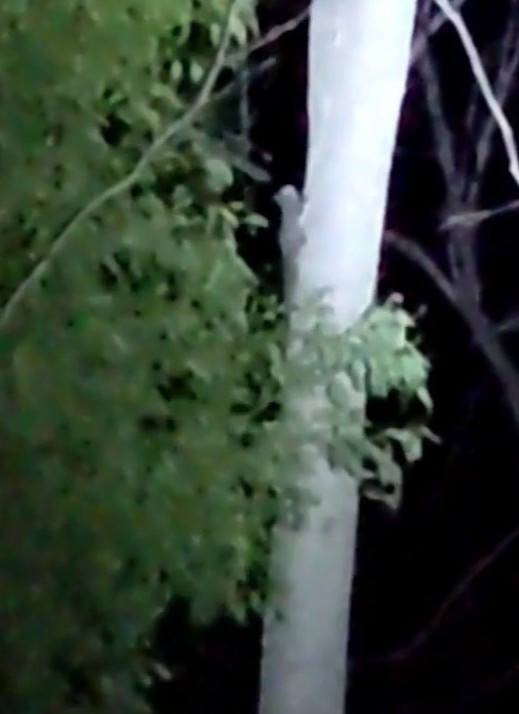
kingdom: Animalia
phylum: Chordata
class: Mammalia
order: Diprotodontia
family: Petauridae
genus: Petaurus
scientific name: Petaurus breviceps
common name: Sugar glider
